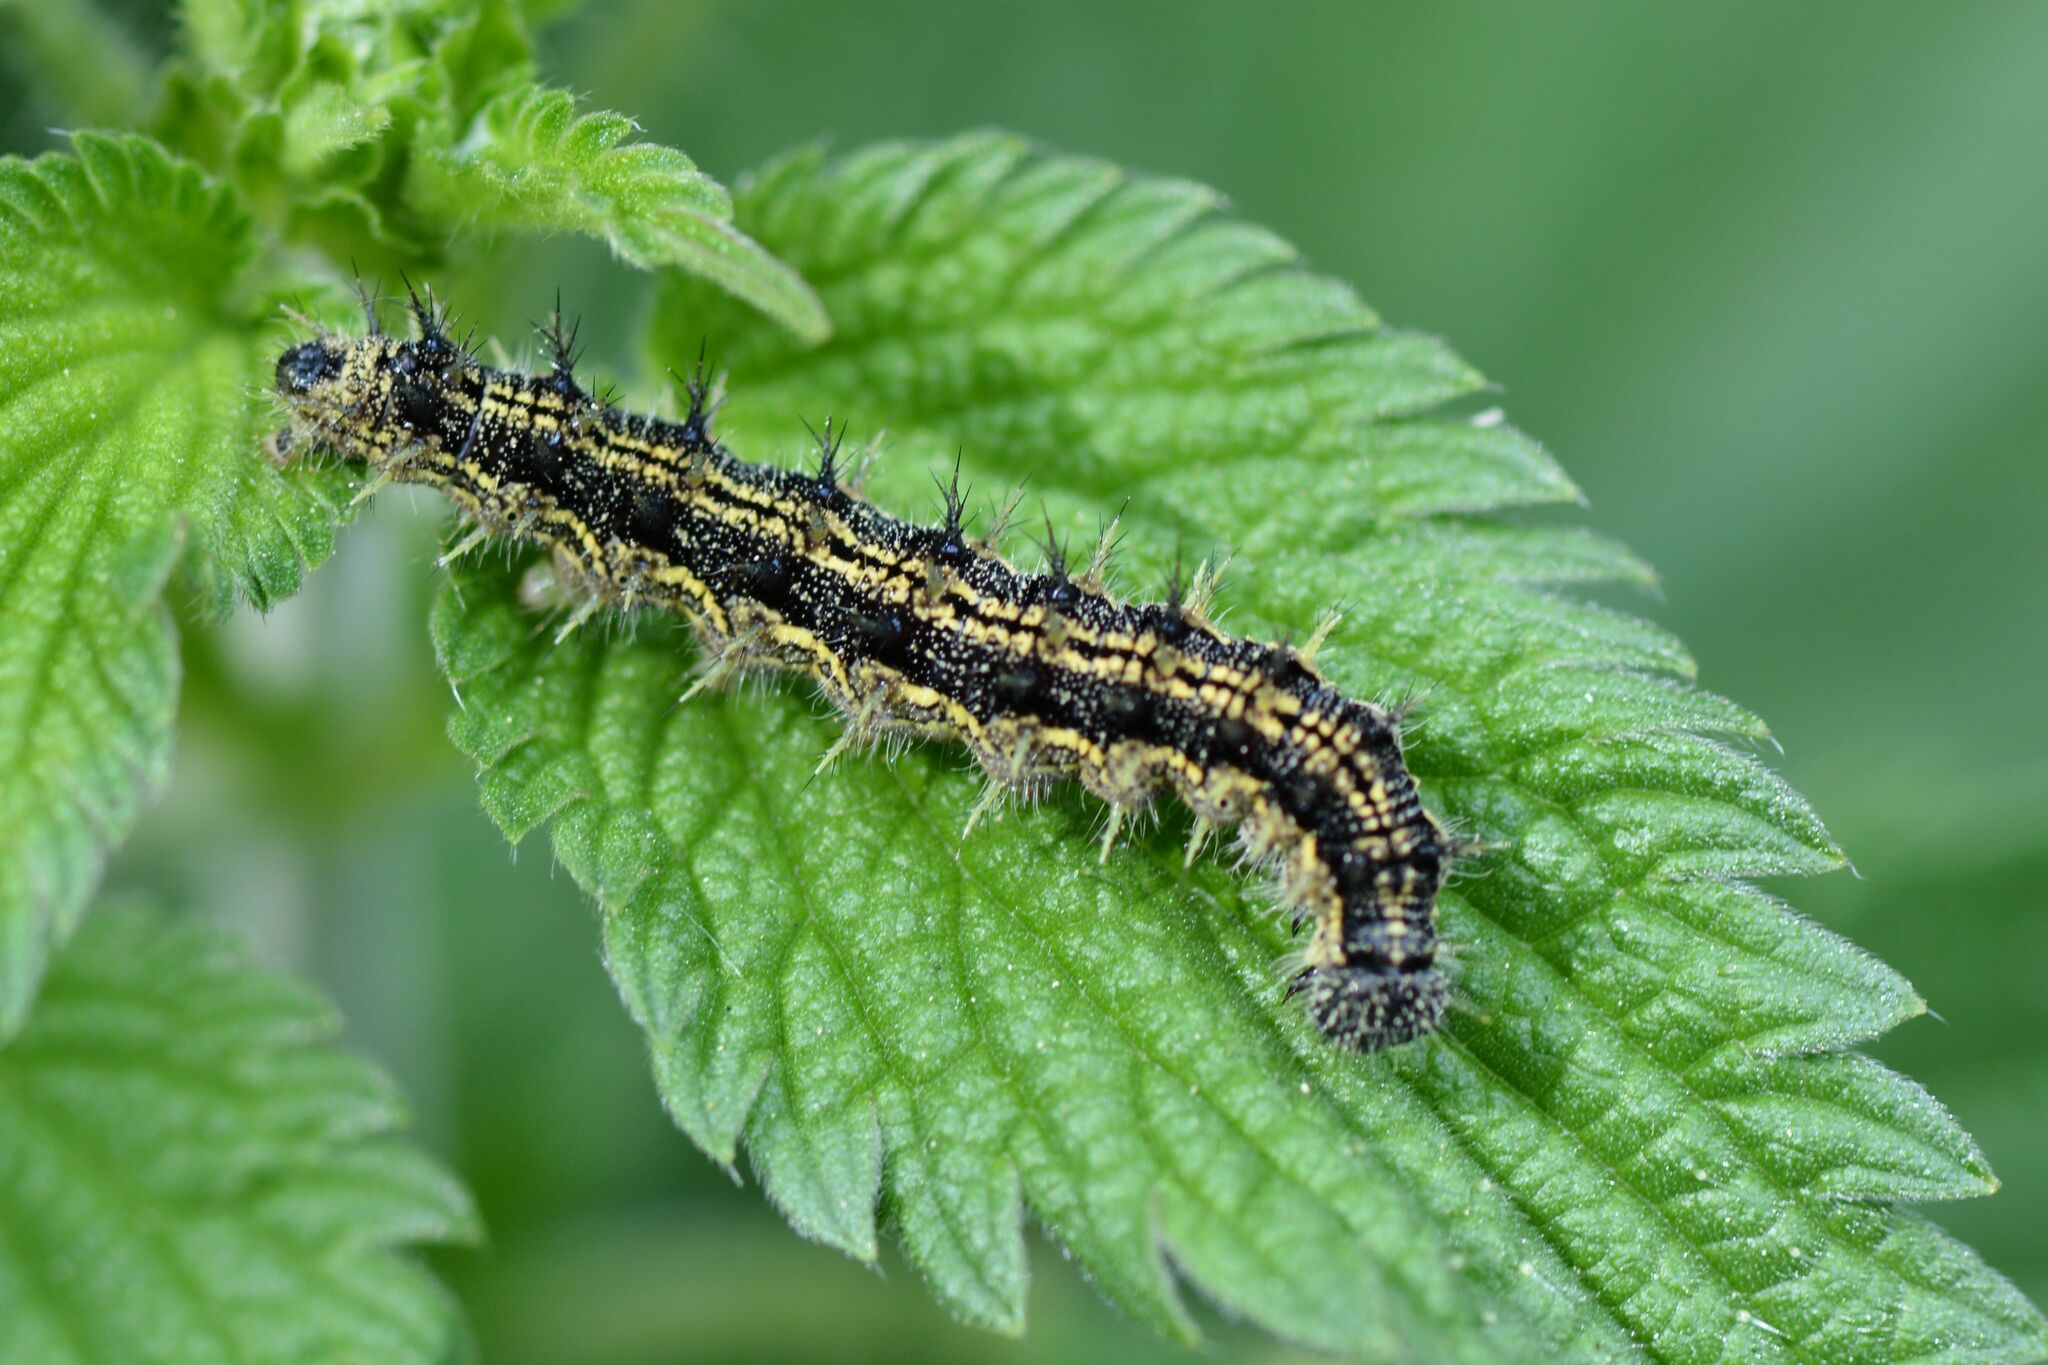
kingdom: Animalia
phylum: Arthropoda
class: Insecta
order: Lepidoptera
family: Nymphalidae
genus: Aglais
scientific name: Aglais urticae
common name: Small tortoiseshell
